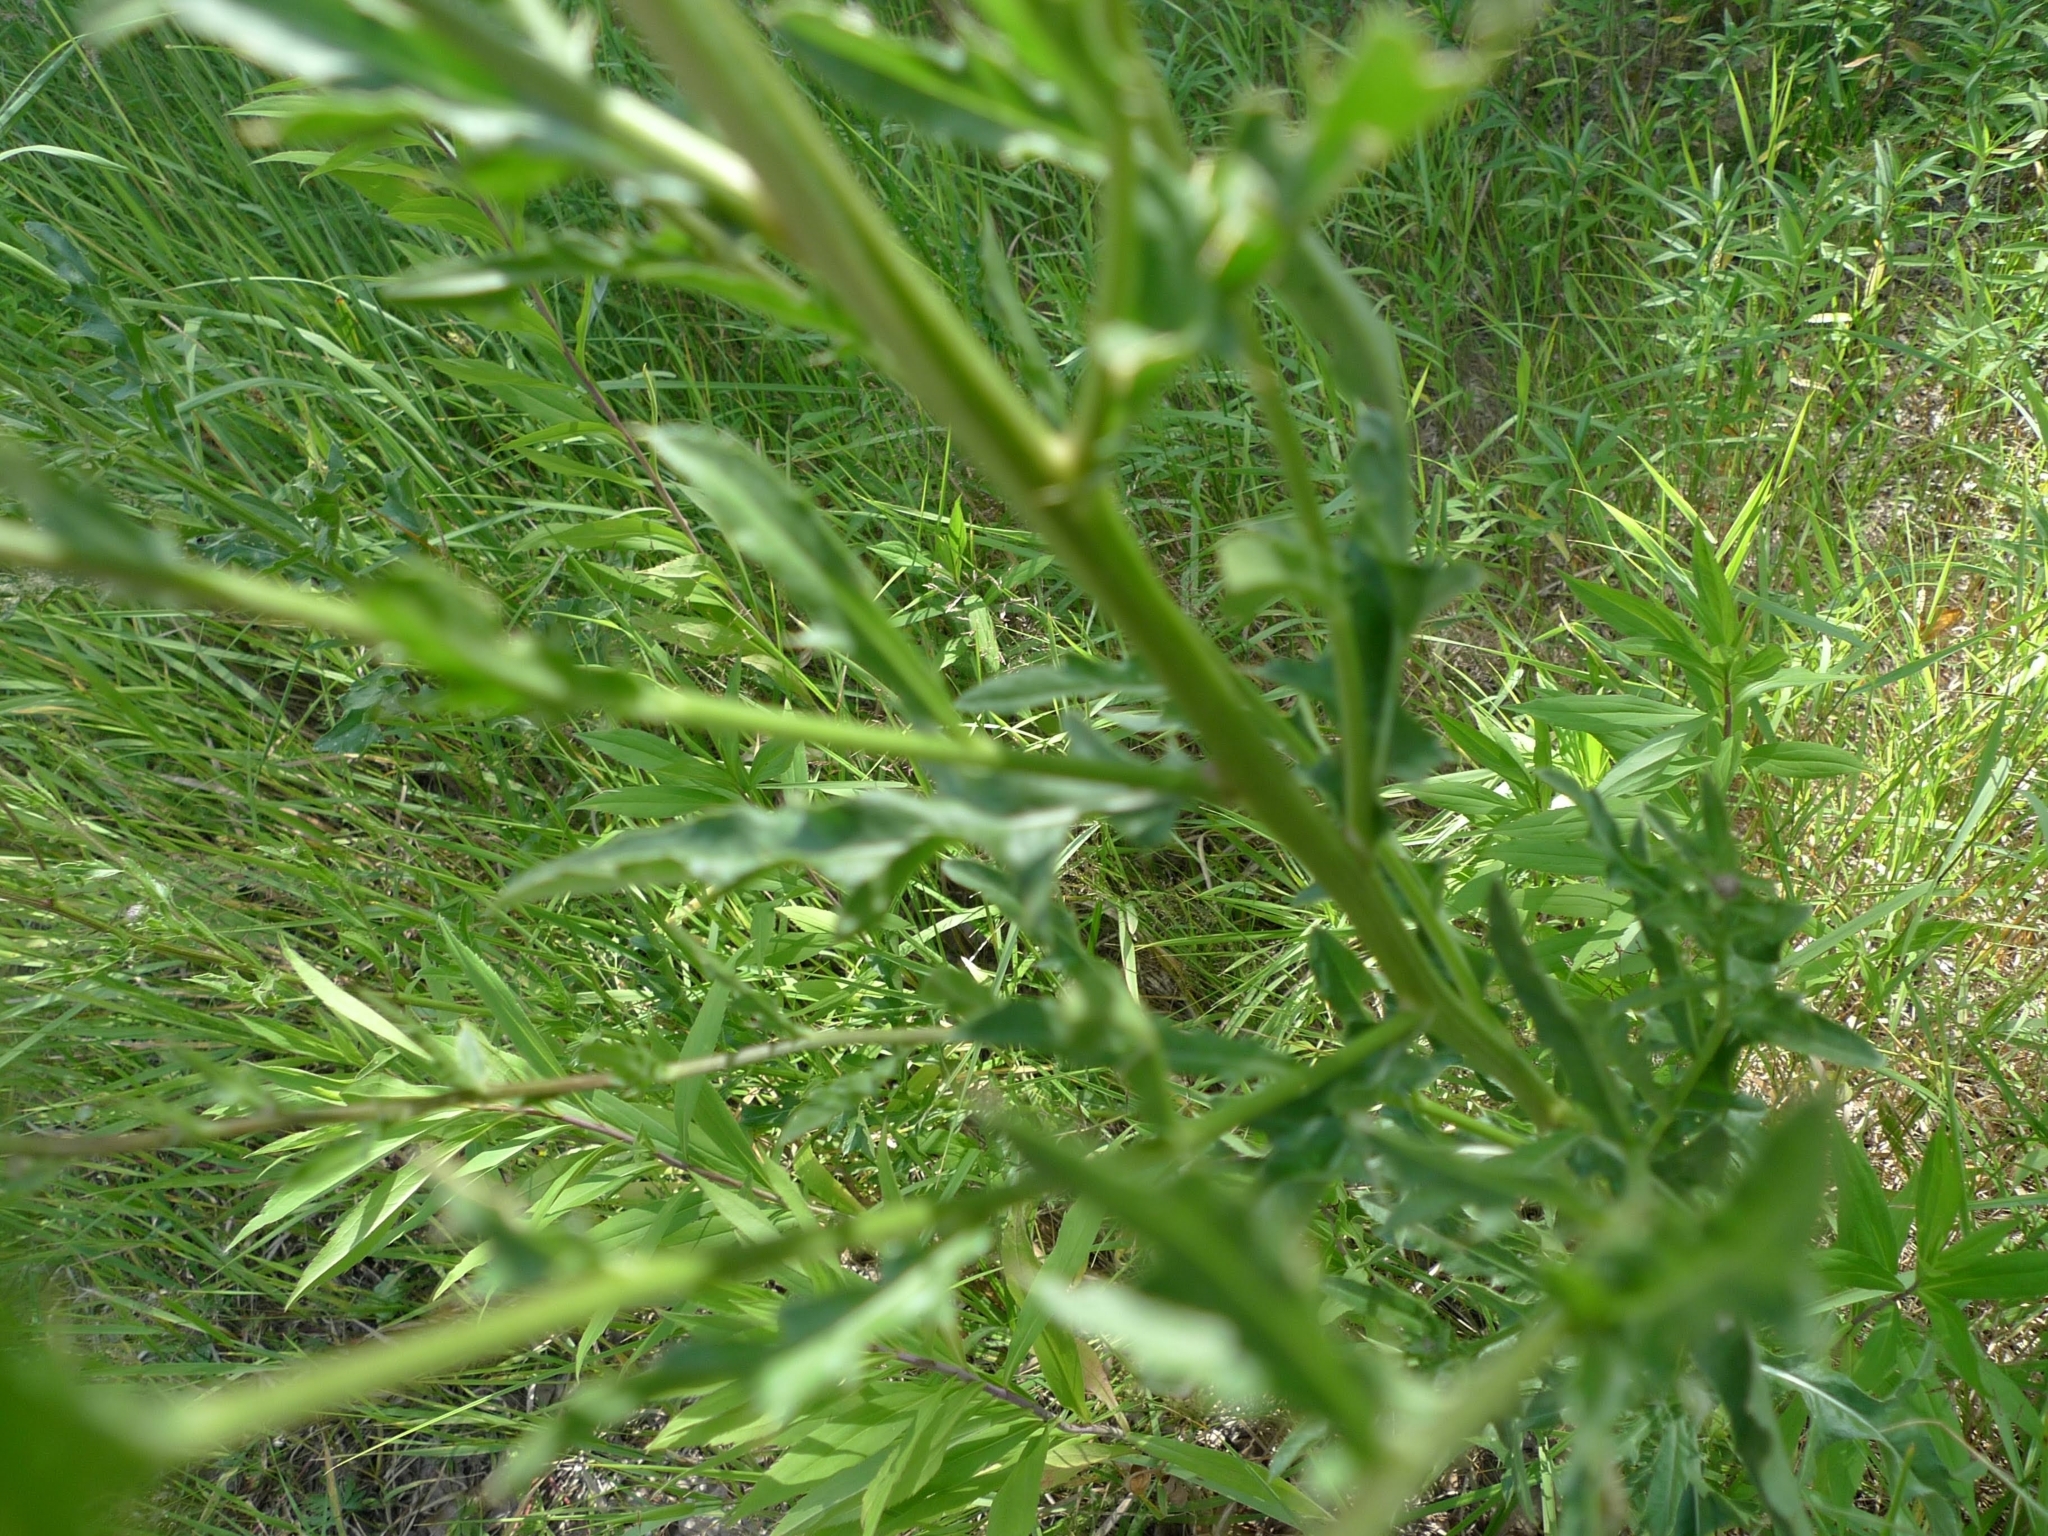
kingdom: Plantae
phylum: Tracheophyta
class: Magnoliopsida
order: Asterales
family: Asteraceae
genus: Cirsium
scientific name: Cirsium arvense
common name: Creeping thistle
